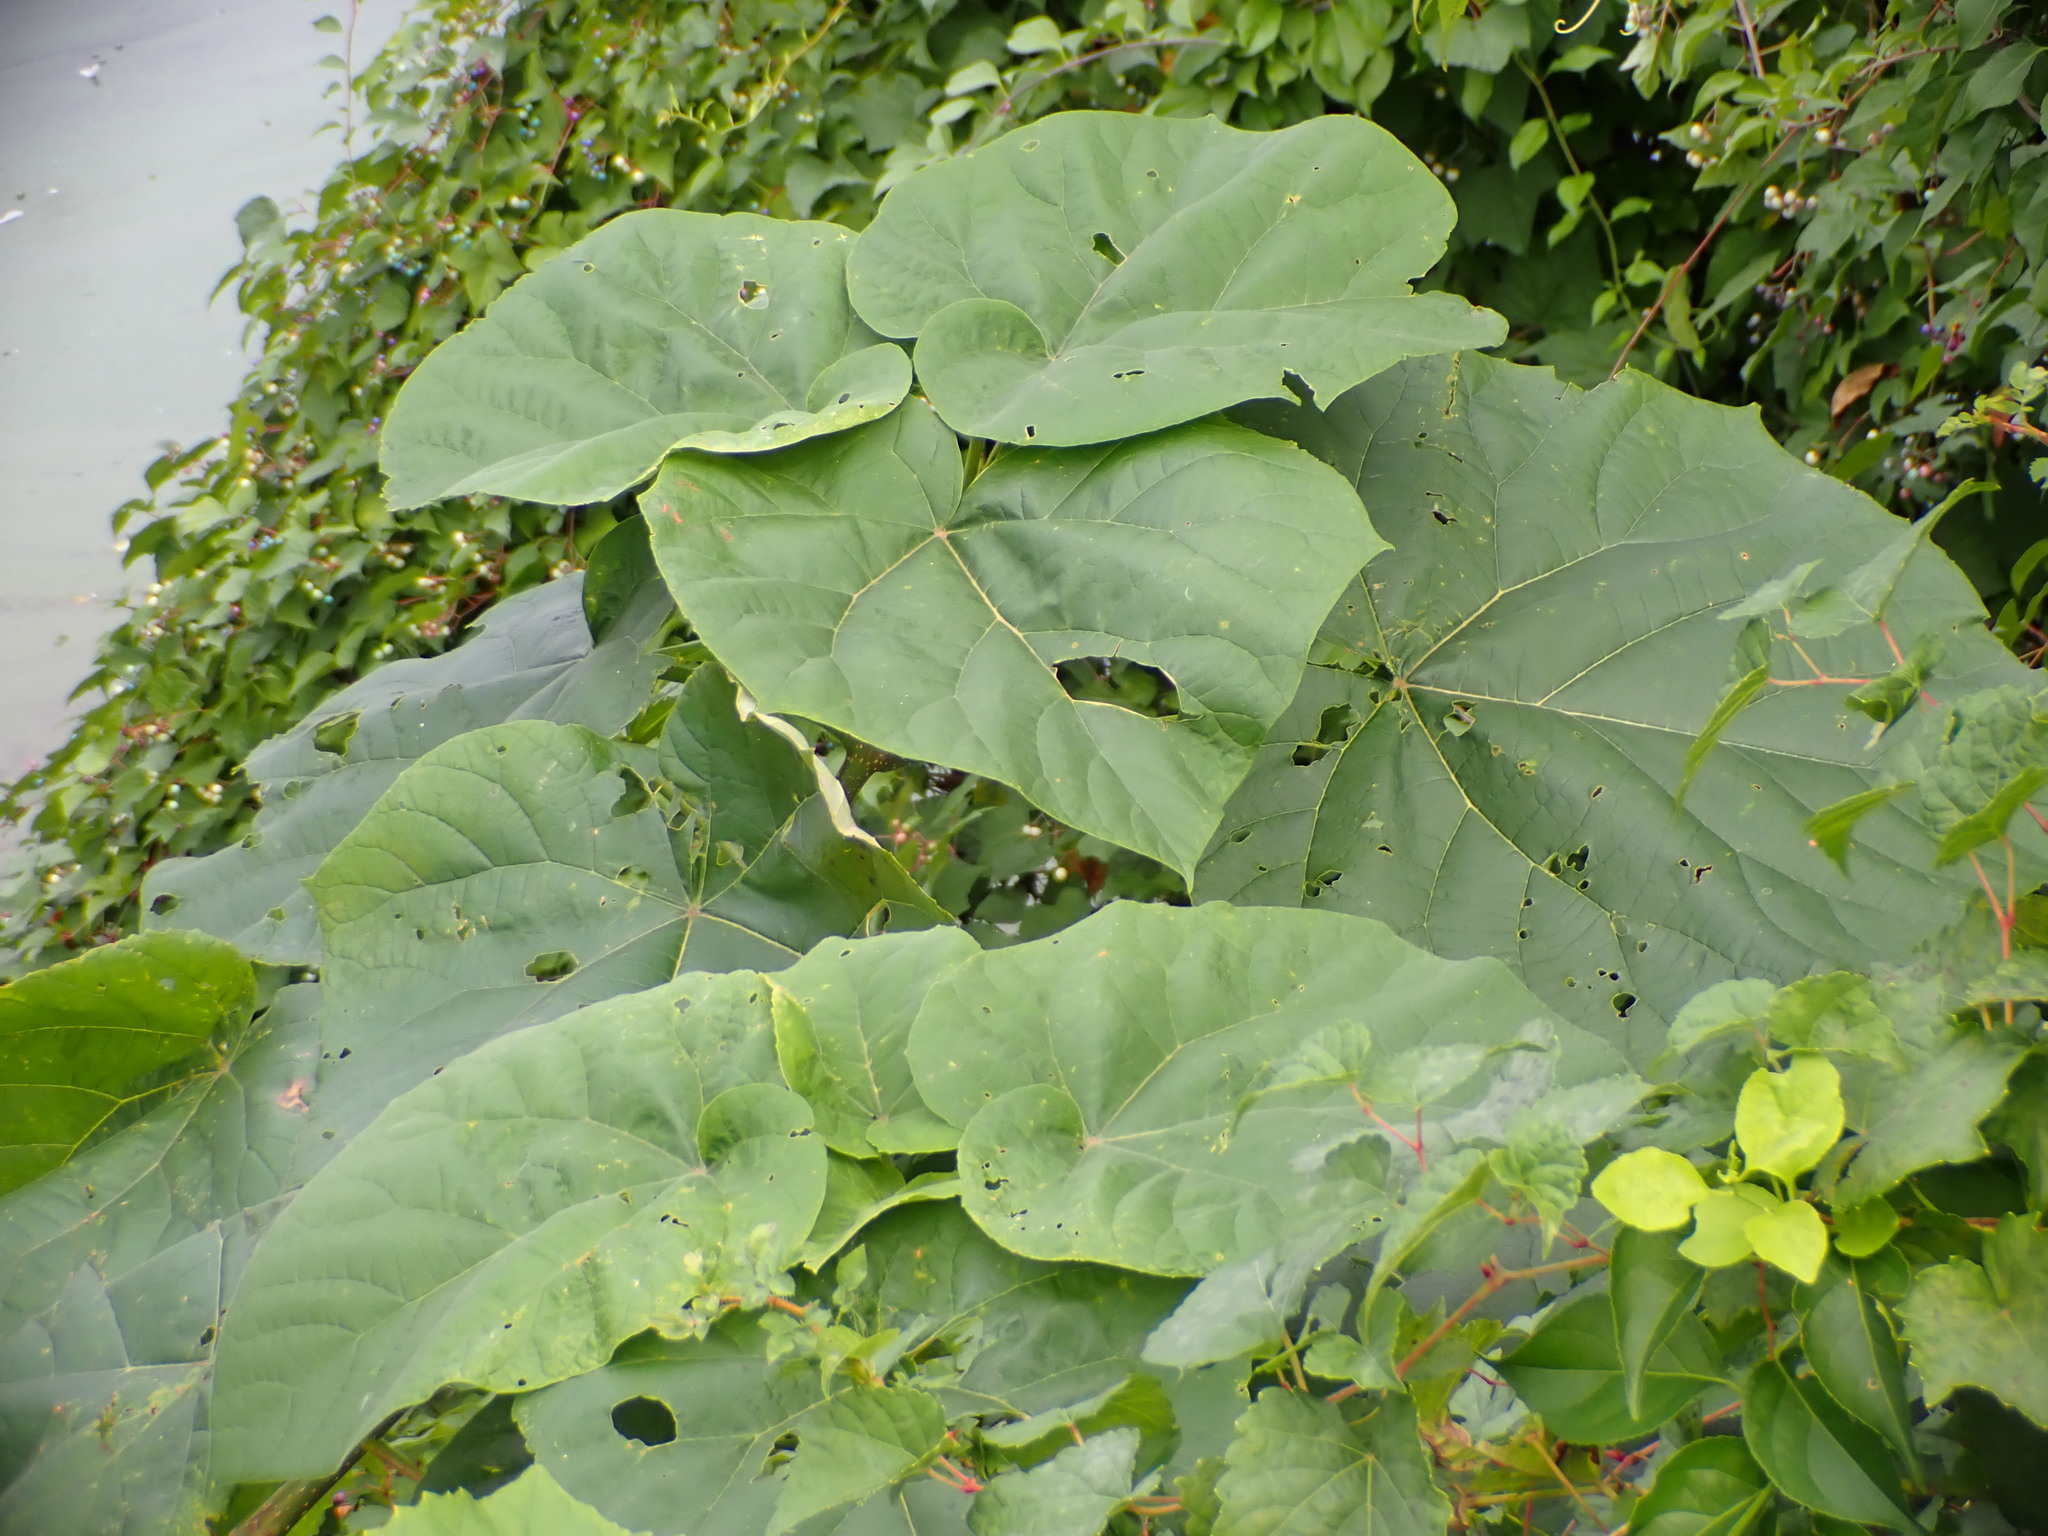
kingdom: Plantae
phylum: Tracheophyta
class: Magnoliopsida
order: Lamiales
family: Paulowniaceae
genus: Paulownia
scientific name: Paulownia tomentosa
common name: Foxglove-tree
